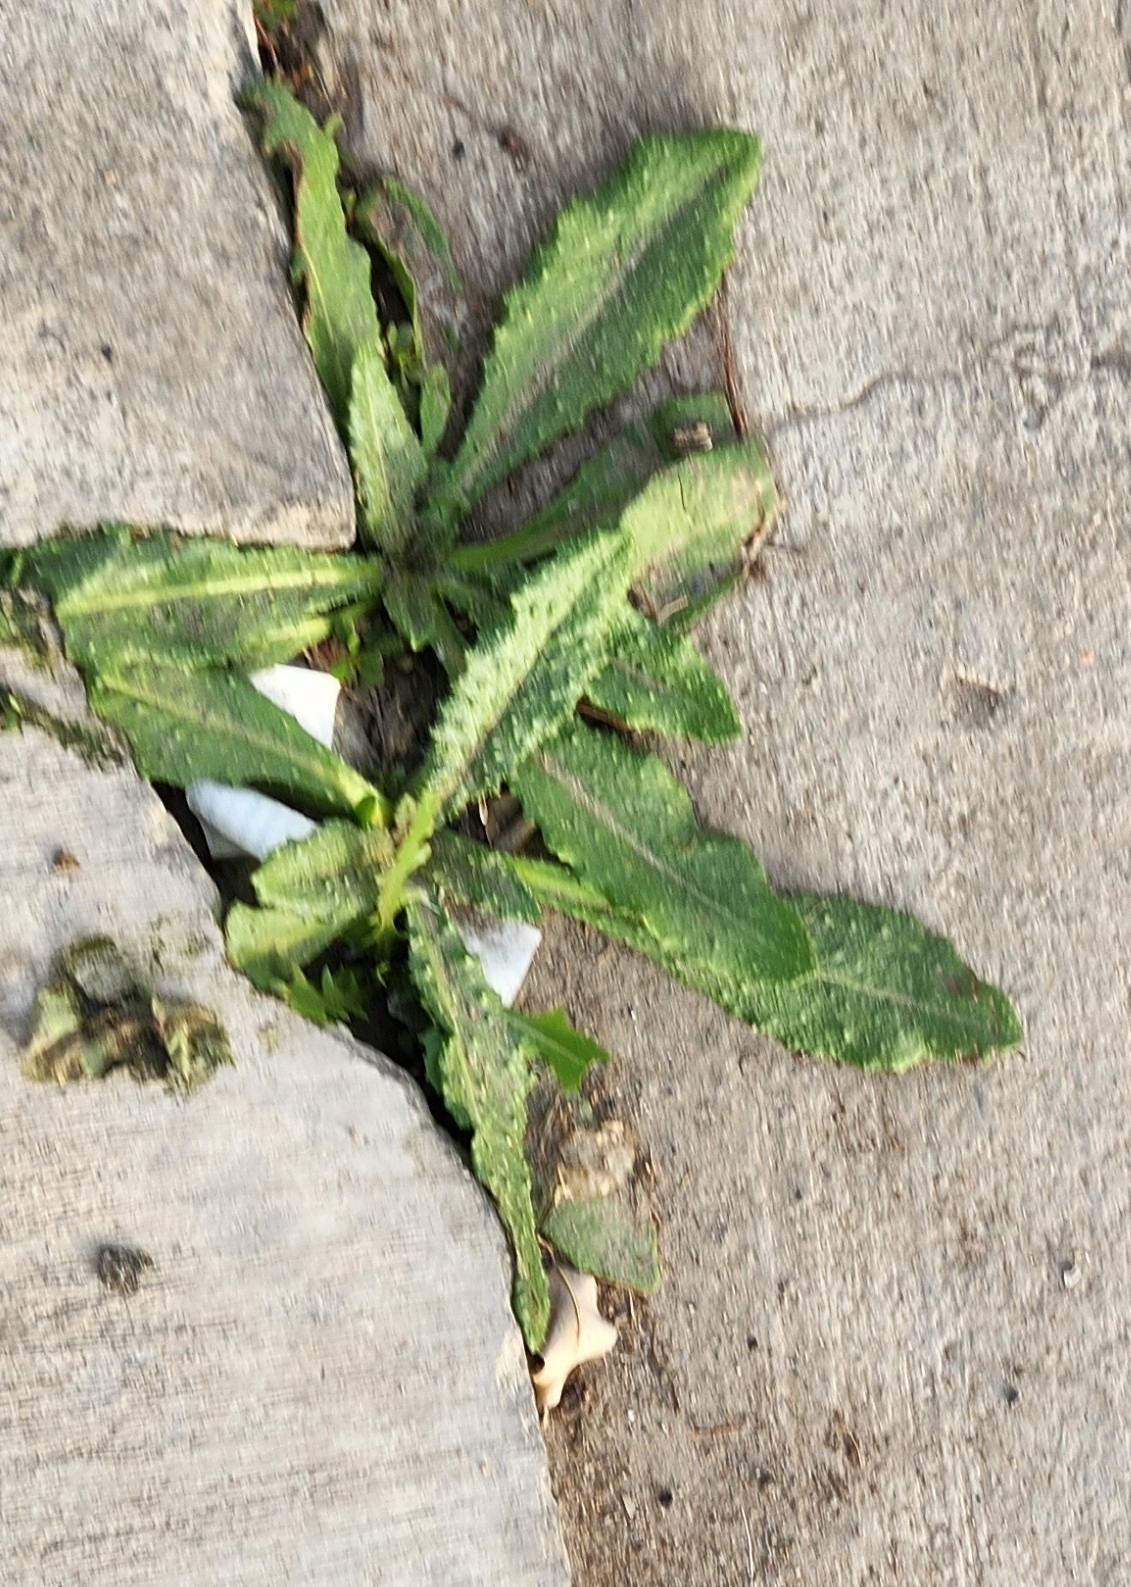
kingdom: Plantae
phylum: Tracheophyta
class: Magnoliopsida
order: Asterales
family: Asteraceae
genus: Helminthotheca
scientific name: Helminthotheca echioides
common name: Ox-tongue
